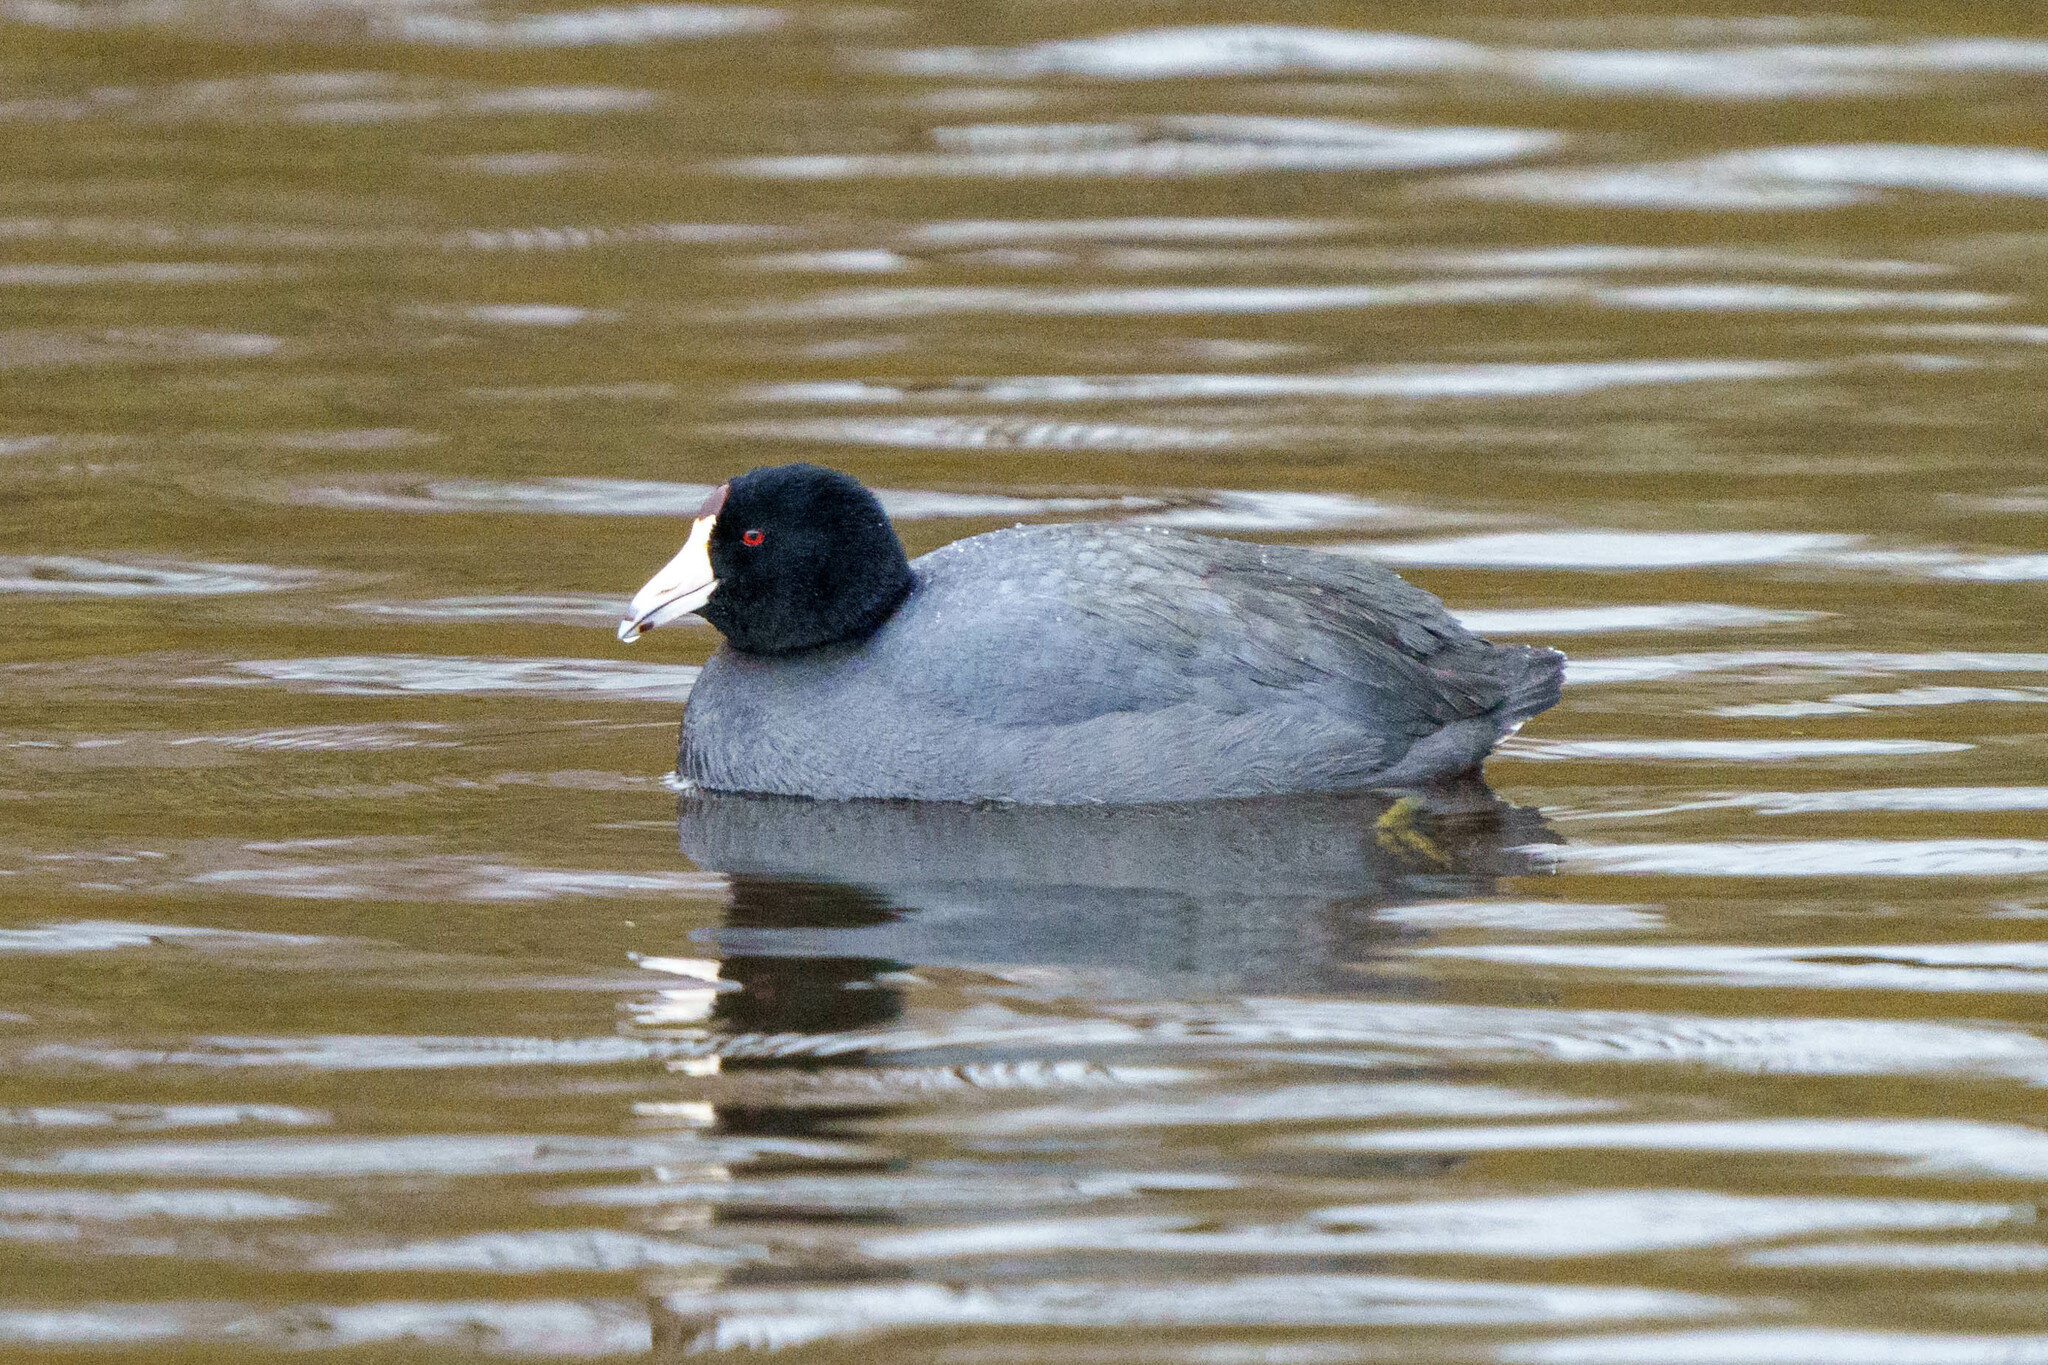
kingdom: Animalia
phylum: Chordata
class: Aves
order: Gruiformes
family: Rallidae
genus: Fulica
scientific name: Fulica americana
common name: American coot
